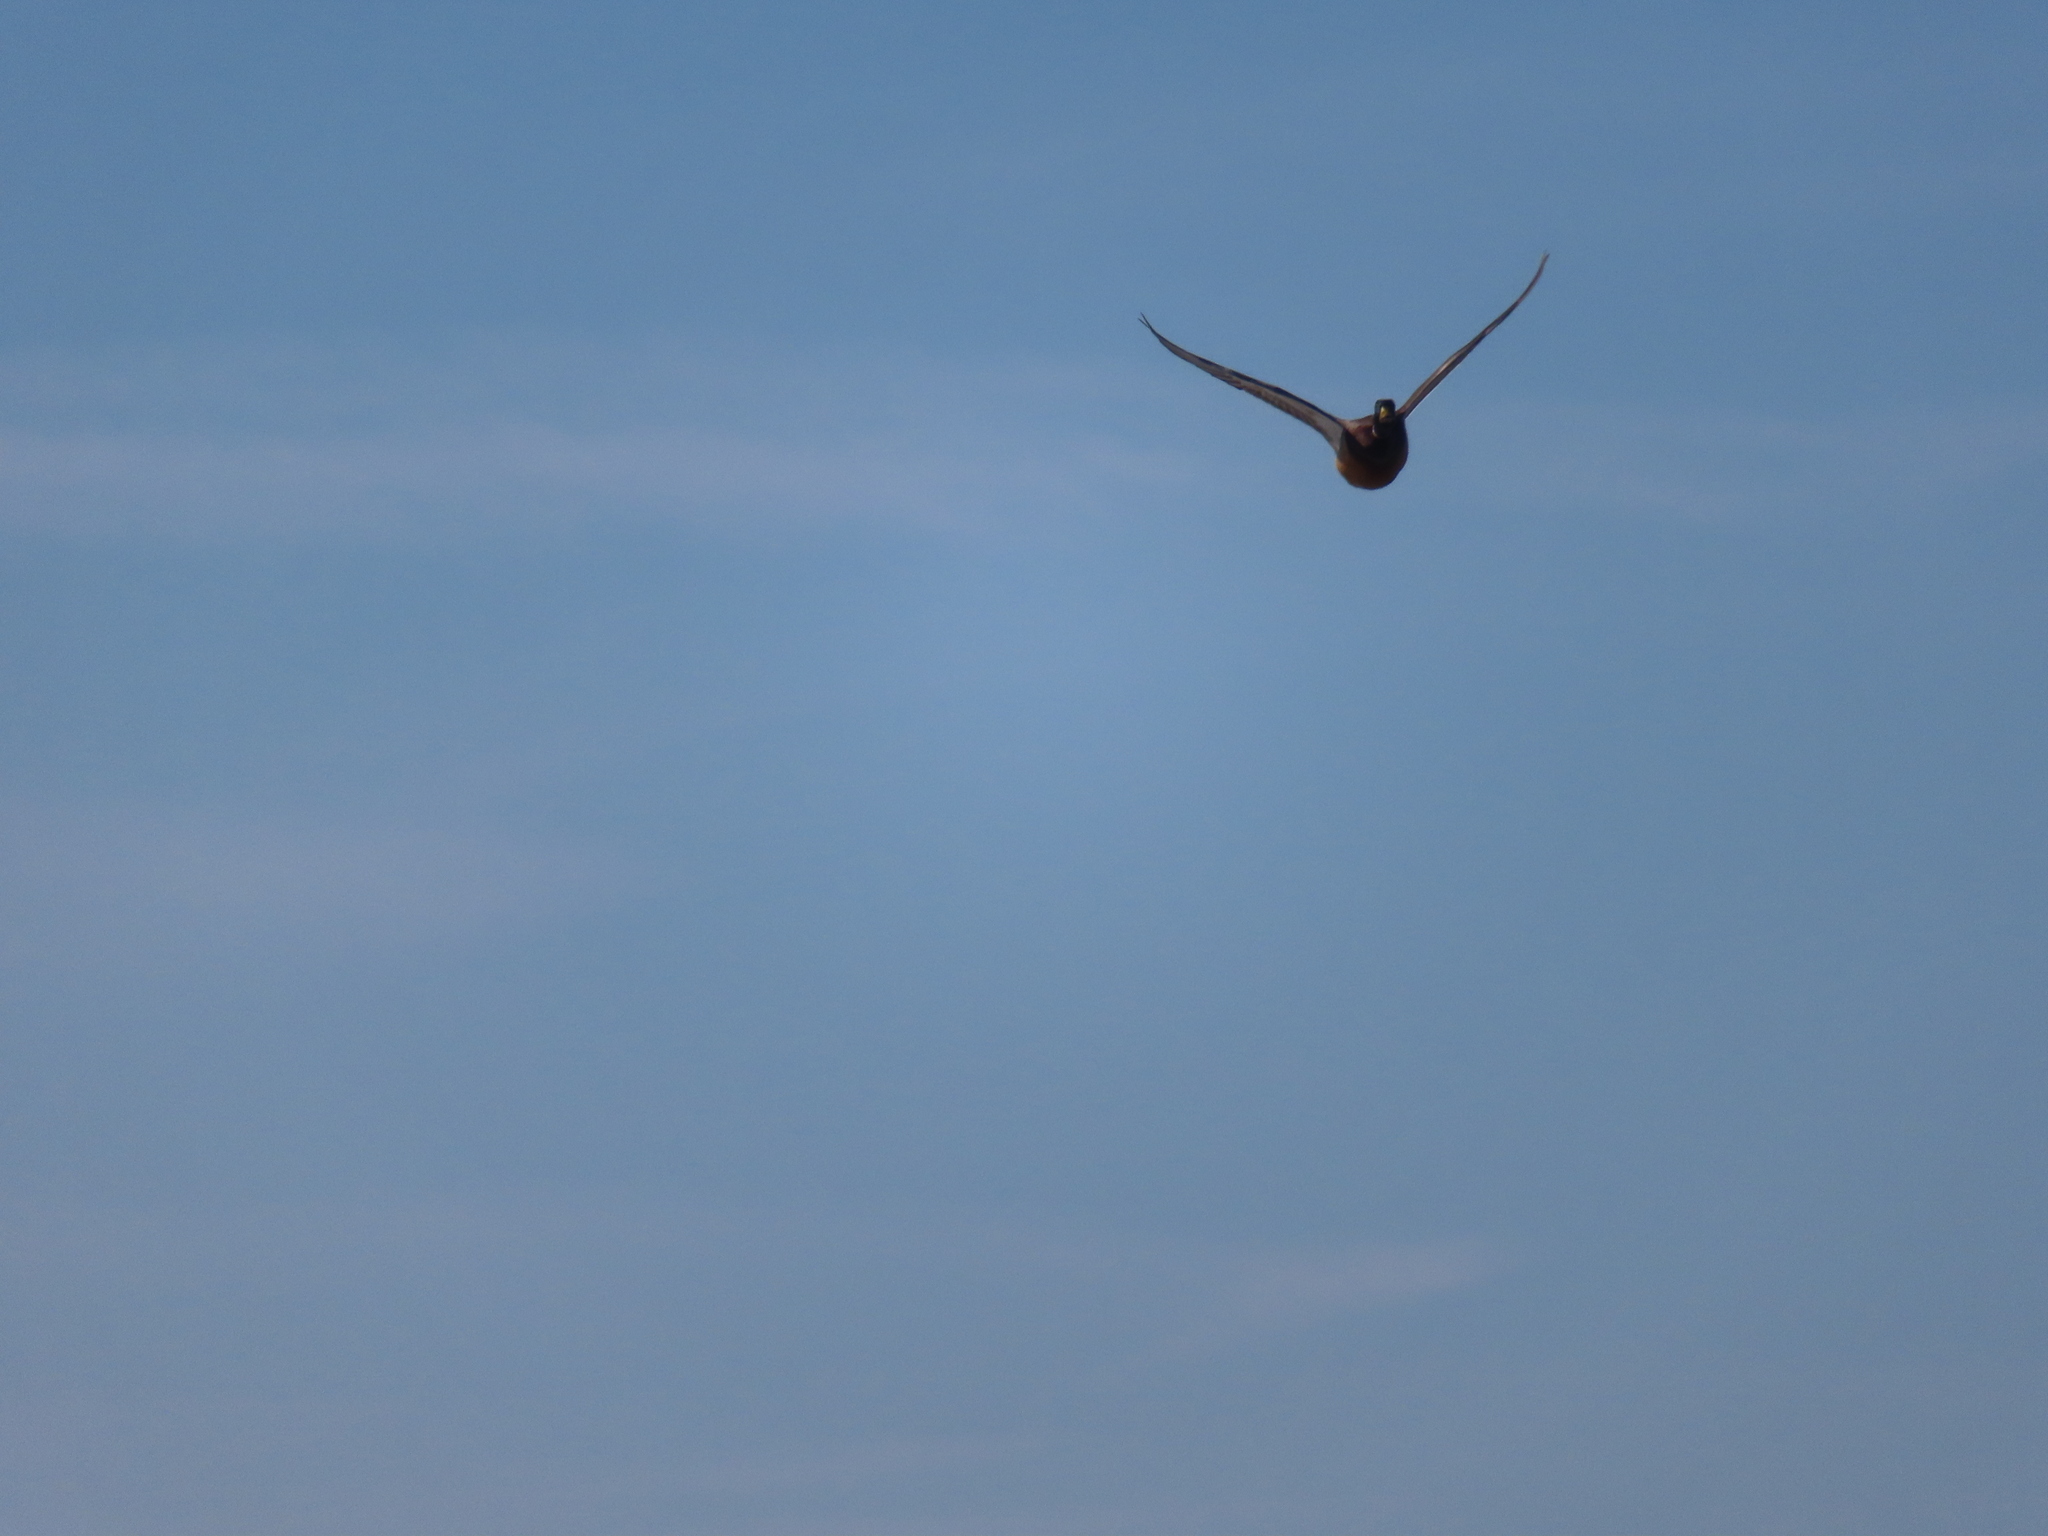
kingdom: Animalia
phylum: Chordata
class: Aves
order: Anseriformes
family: Anatidae
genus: Anas
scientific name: Anas platyrhynchos
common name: Mallard
